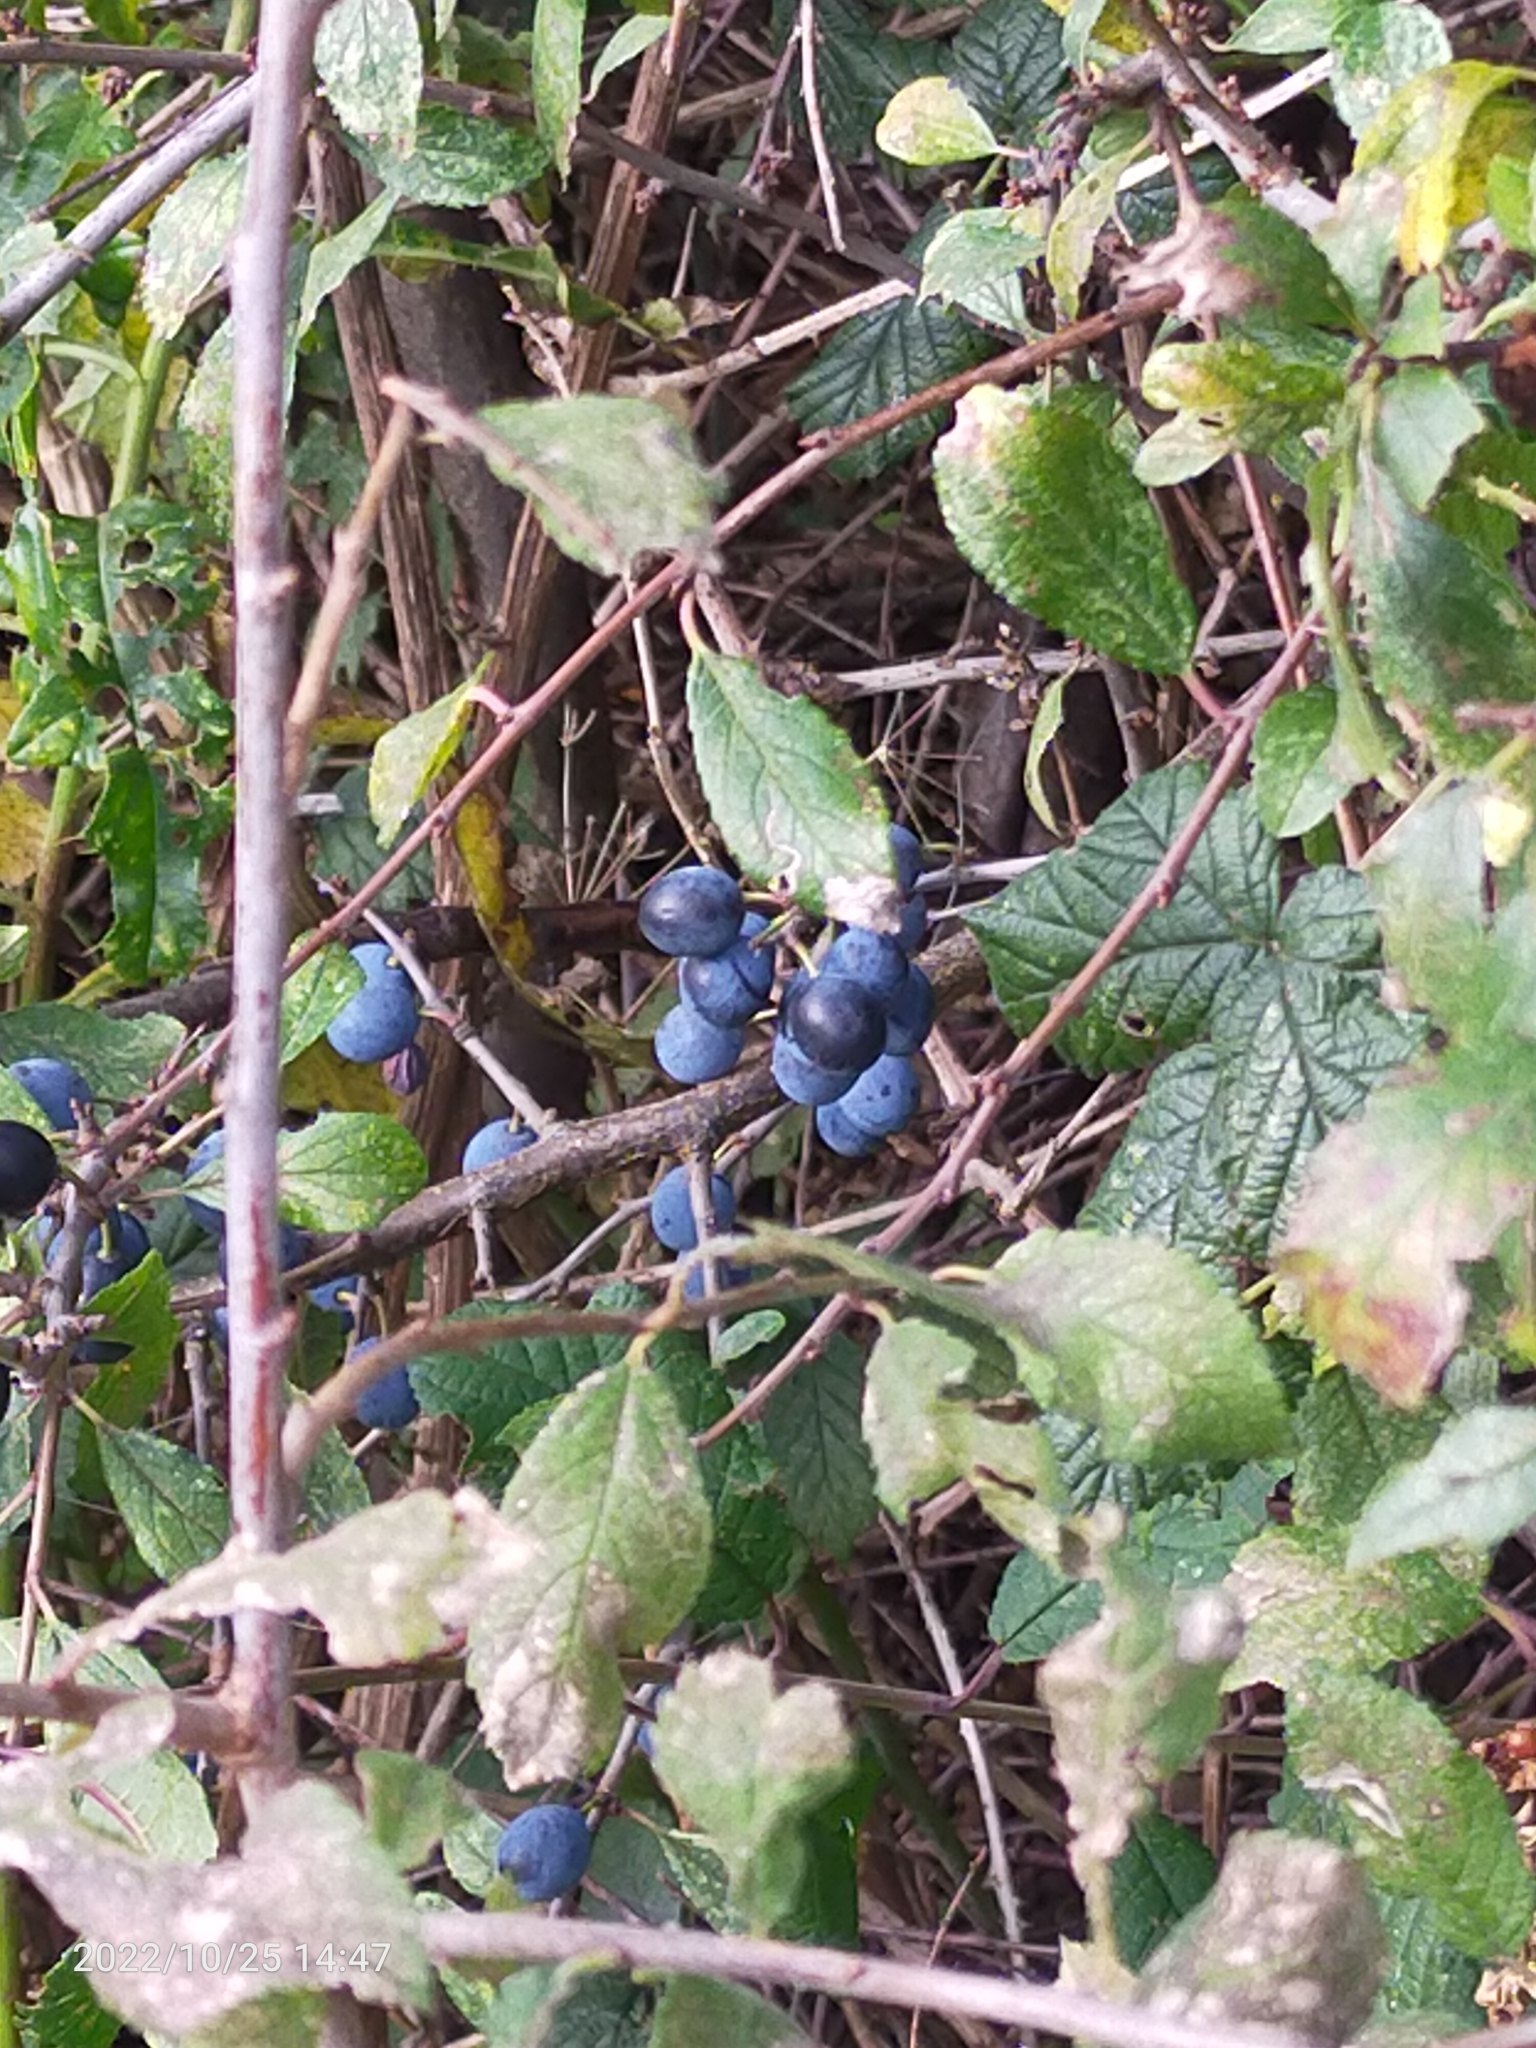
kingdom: Plantae
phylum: Tracheophyta
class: Magnoliopsida
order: Rosales
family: Rosaceae
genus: Prunus
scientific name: Prunus spinosa
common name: Blackthorn
